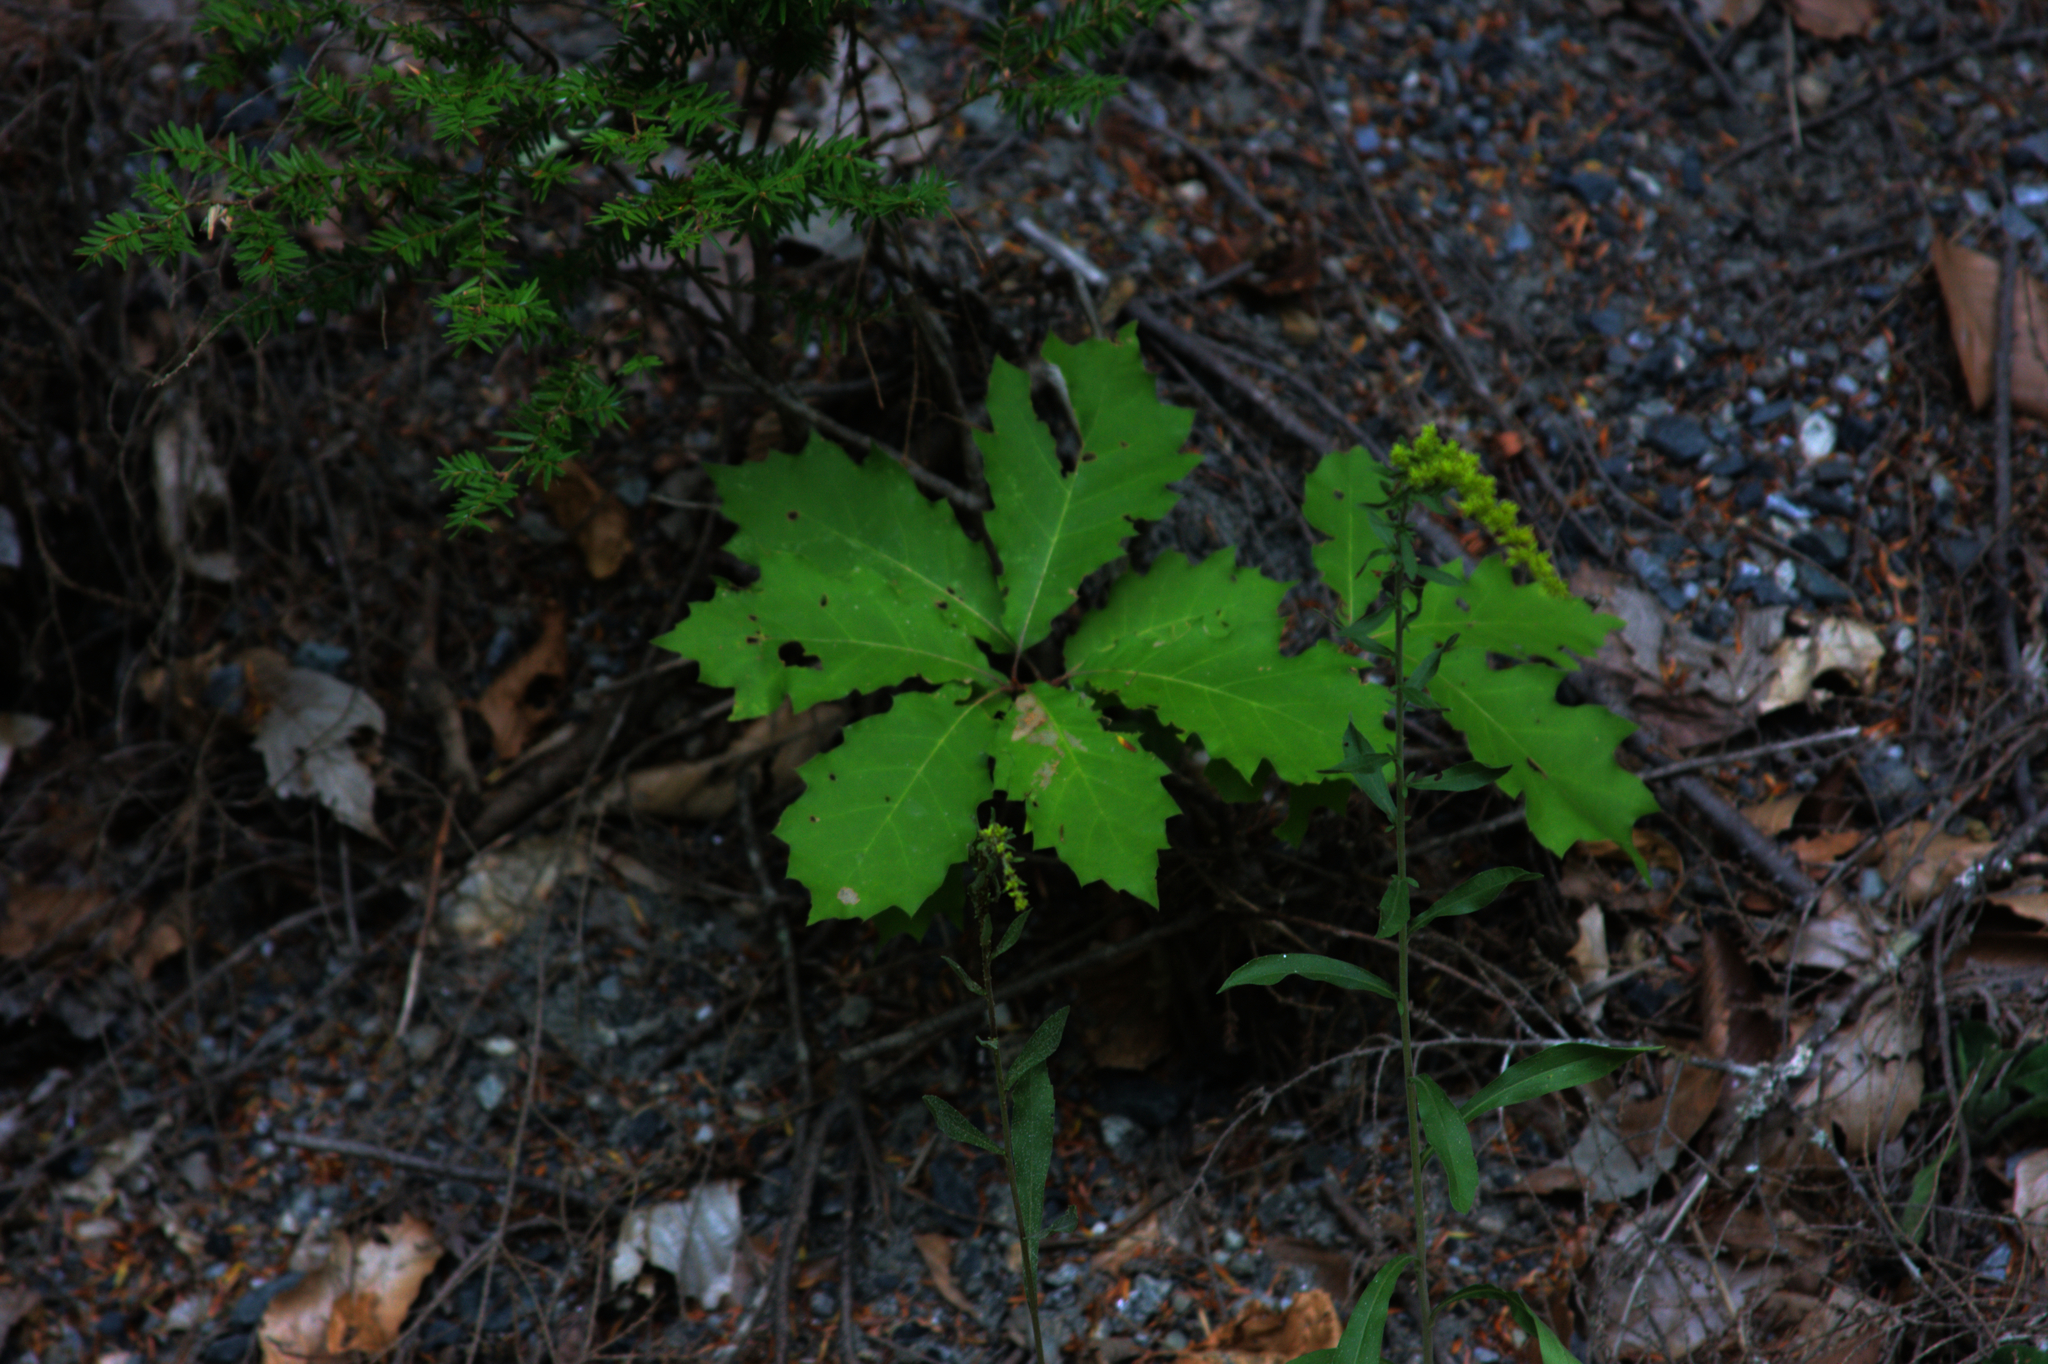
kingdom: Plantae
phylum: Tracheophyta
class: Magnoliopsida
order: Fagales
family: Fagaceae
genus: Quercus
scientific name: Quercus rubra
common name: Red oak
